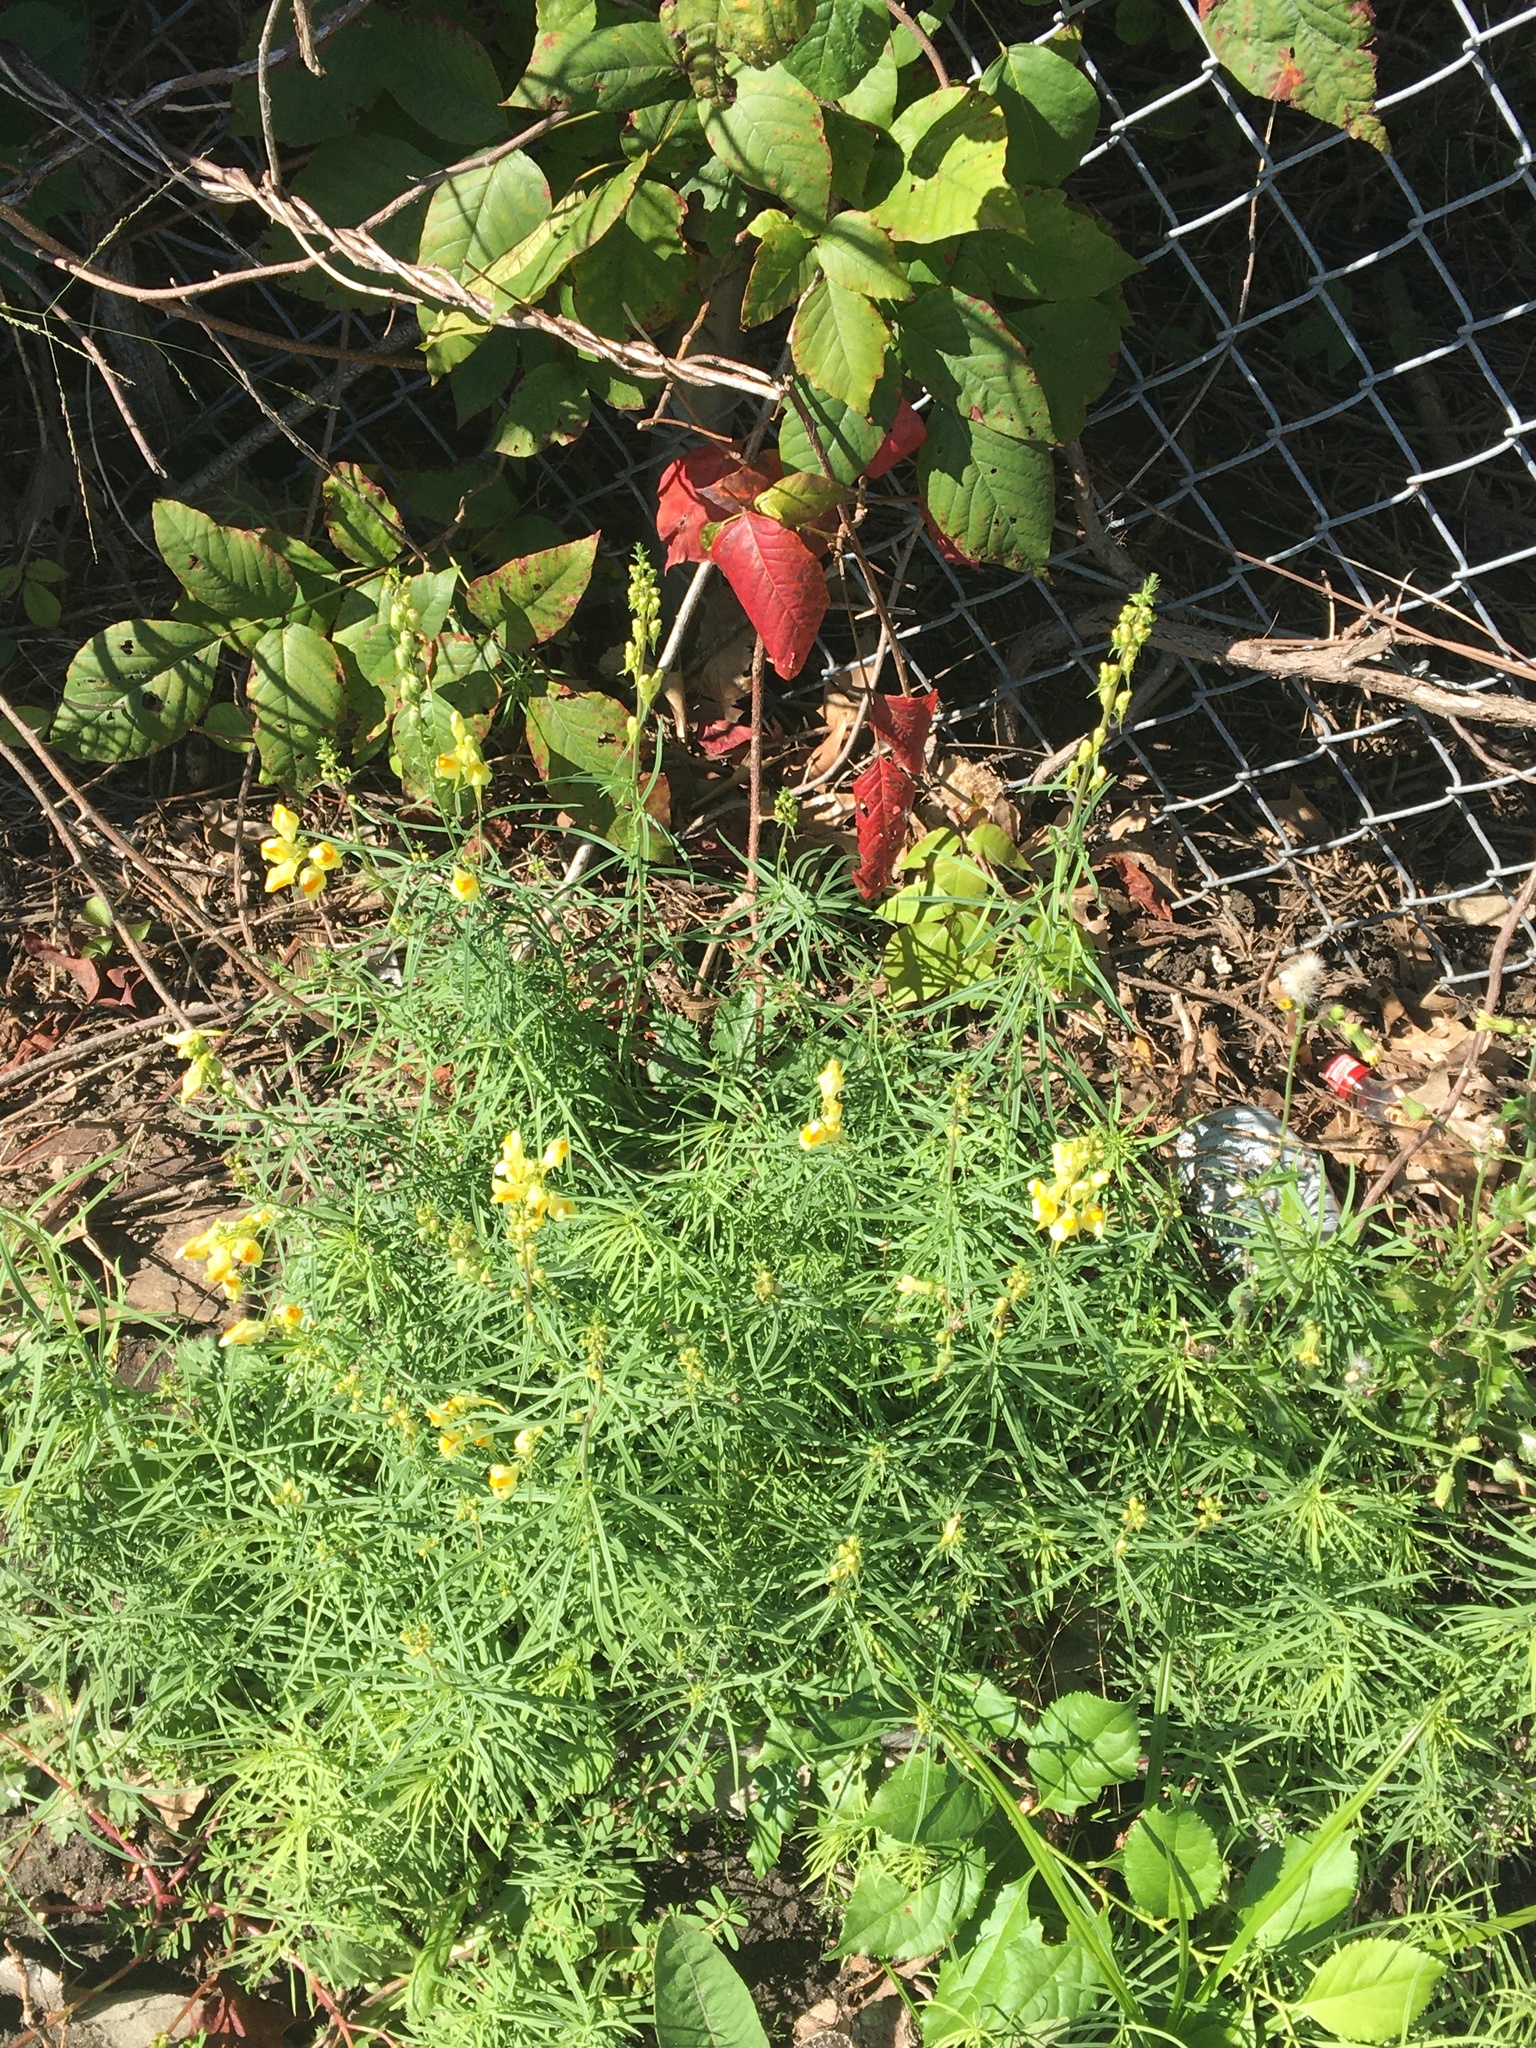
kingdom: Plantae
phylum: Tracheophyta
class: Magnoliopsida
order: Lamiales
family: Plantaginaceae
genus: Linaria
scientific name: Linaria vulgaris
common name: Butter and eggs
